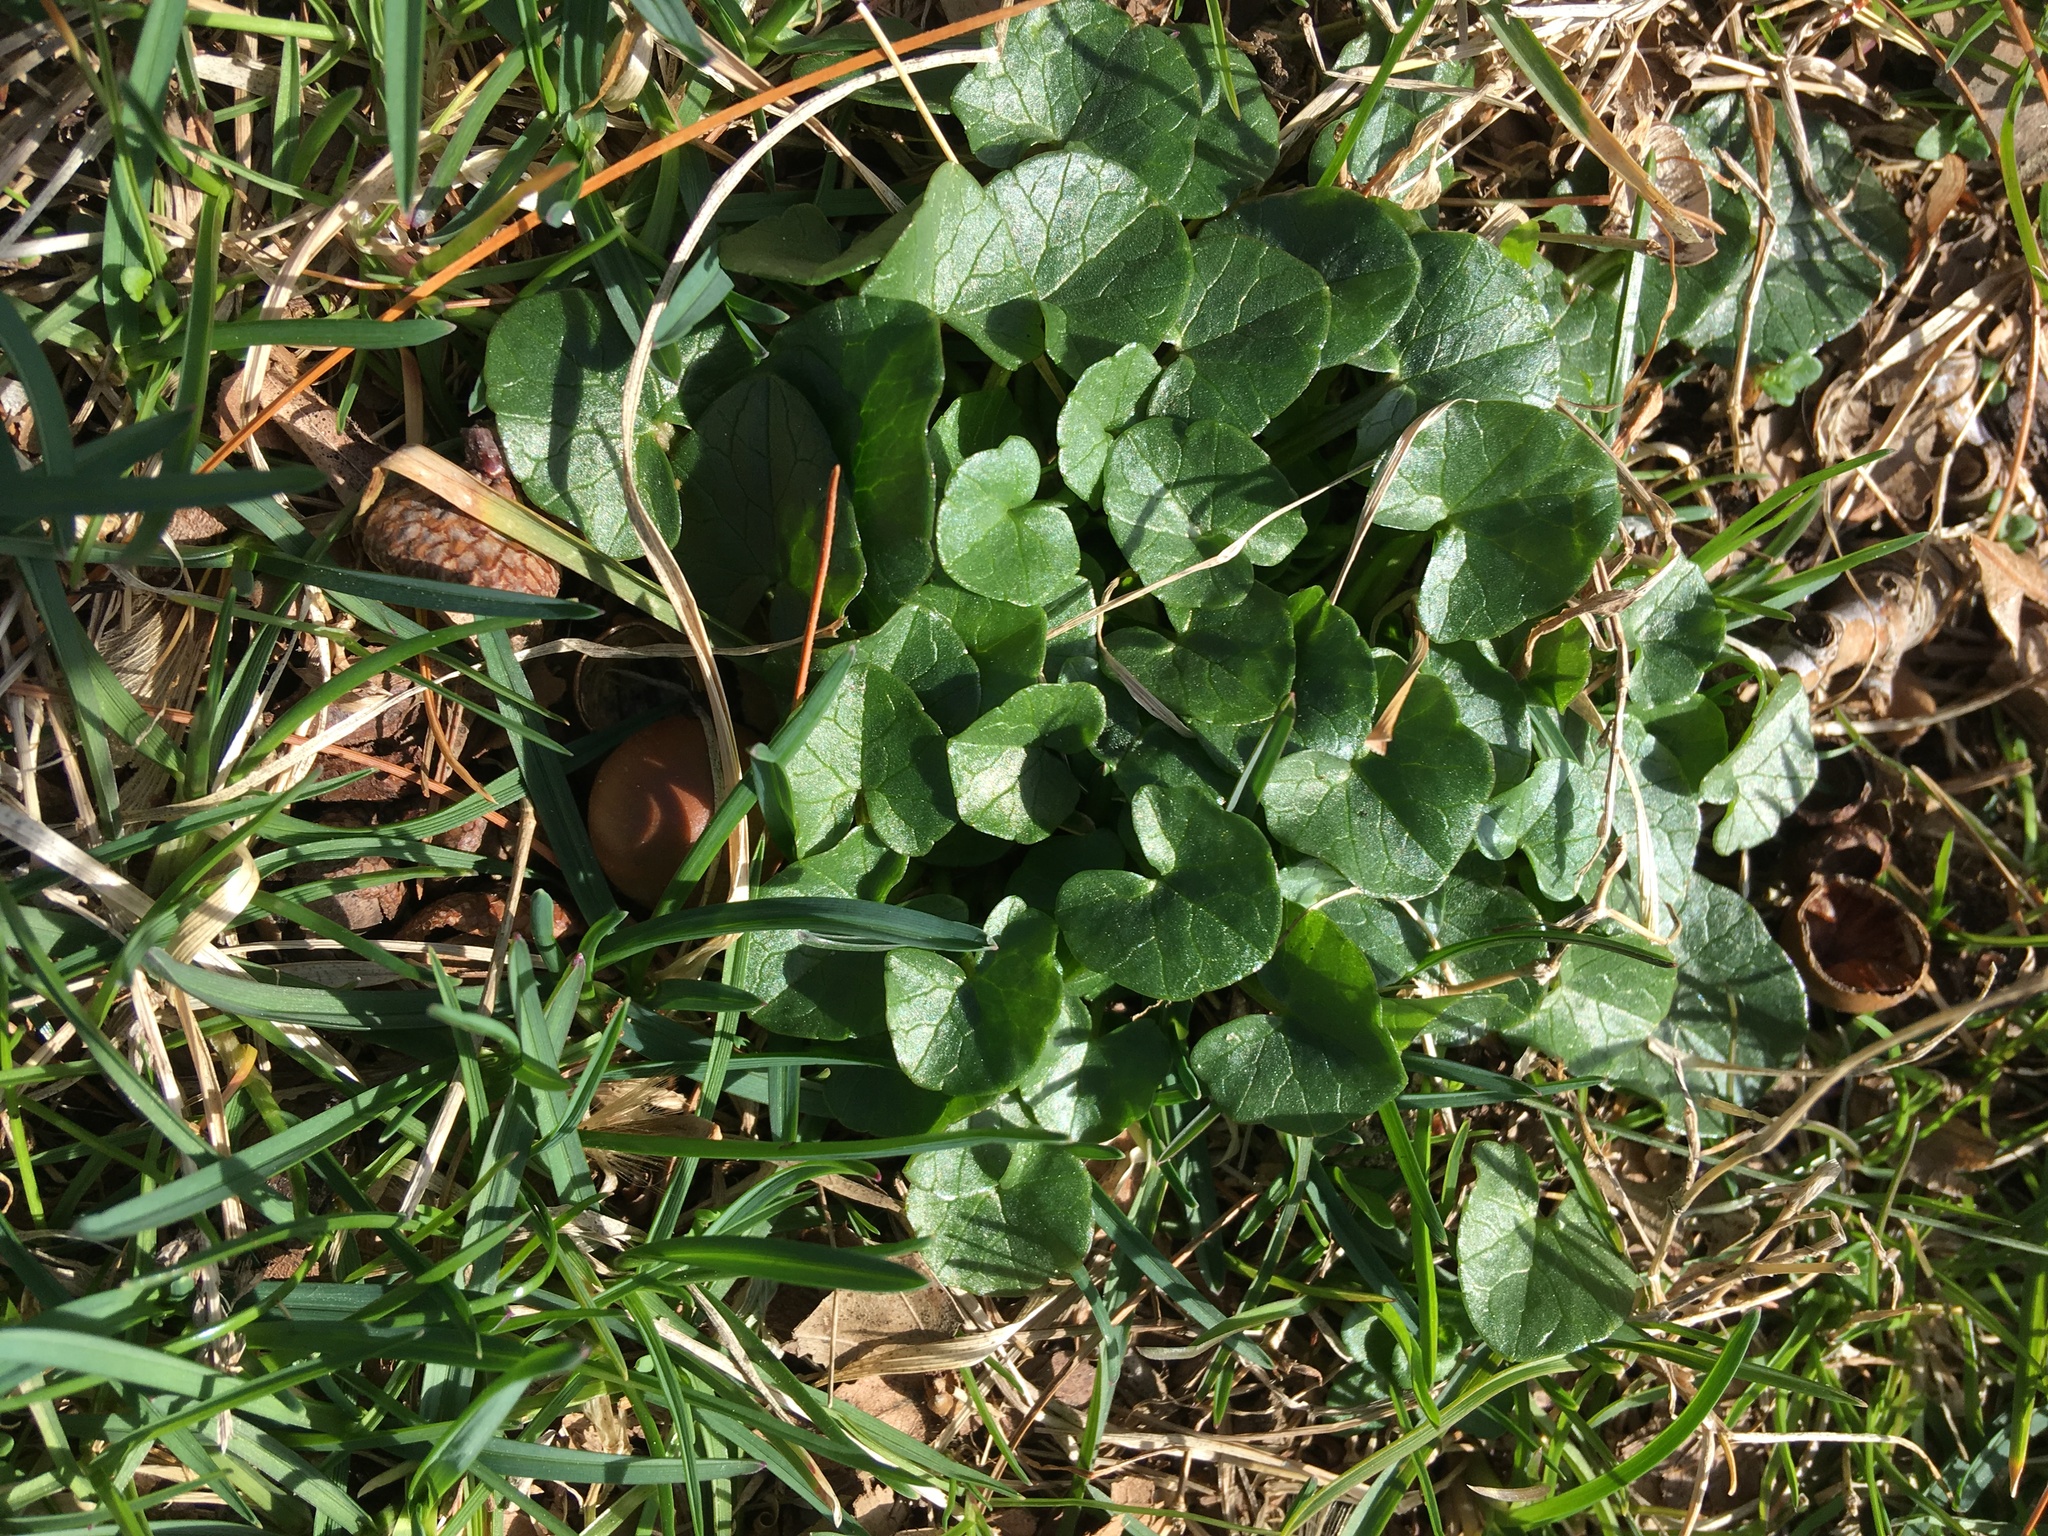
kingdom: Plantae
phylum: Tracheophyta
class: Magnoliopsida
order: Ranunculales
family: Ranunculaceae
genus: Ficaria
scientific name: Ficaria verna
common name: Lesser celandine
